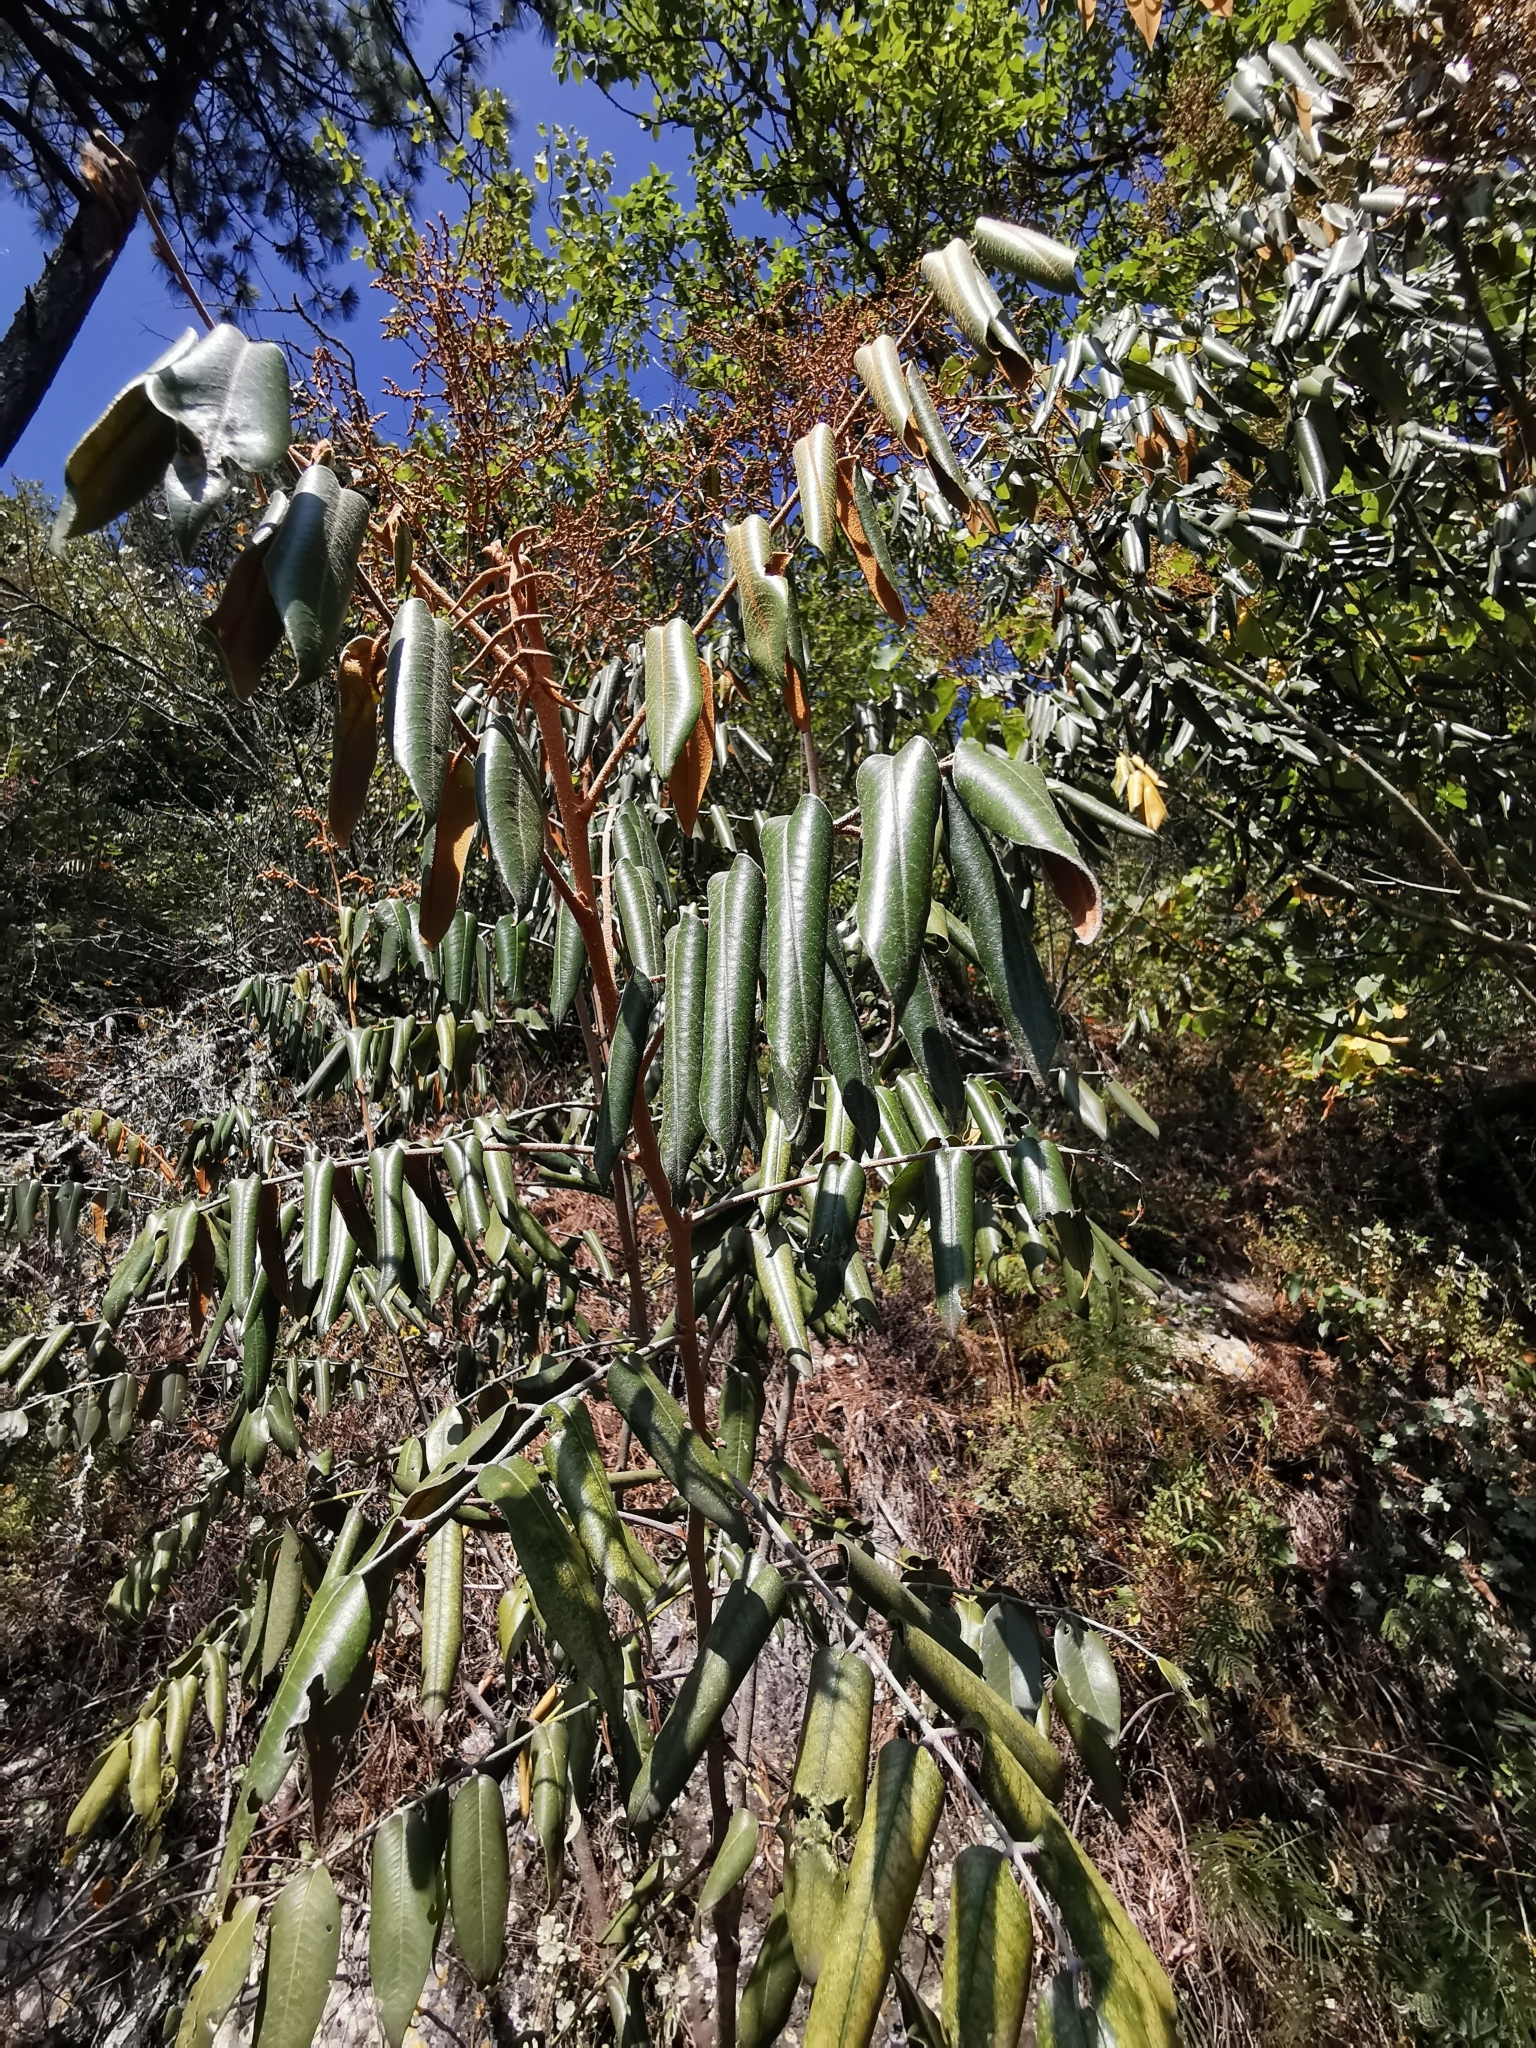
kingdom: Plantae
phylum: Tracheophyta
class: Magnoliopsida
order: Sapindales
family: Rutaceae
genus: Decatropis
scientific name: Decatropis bicolor
